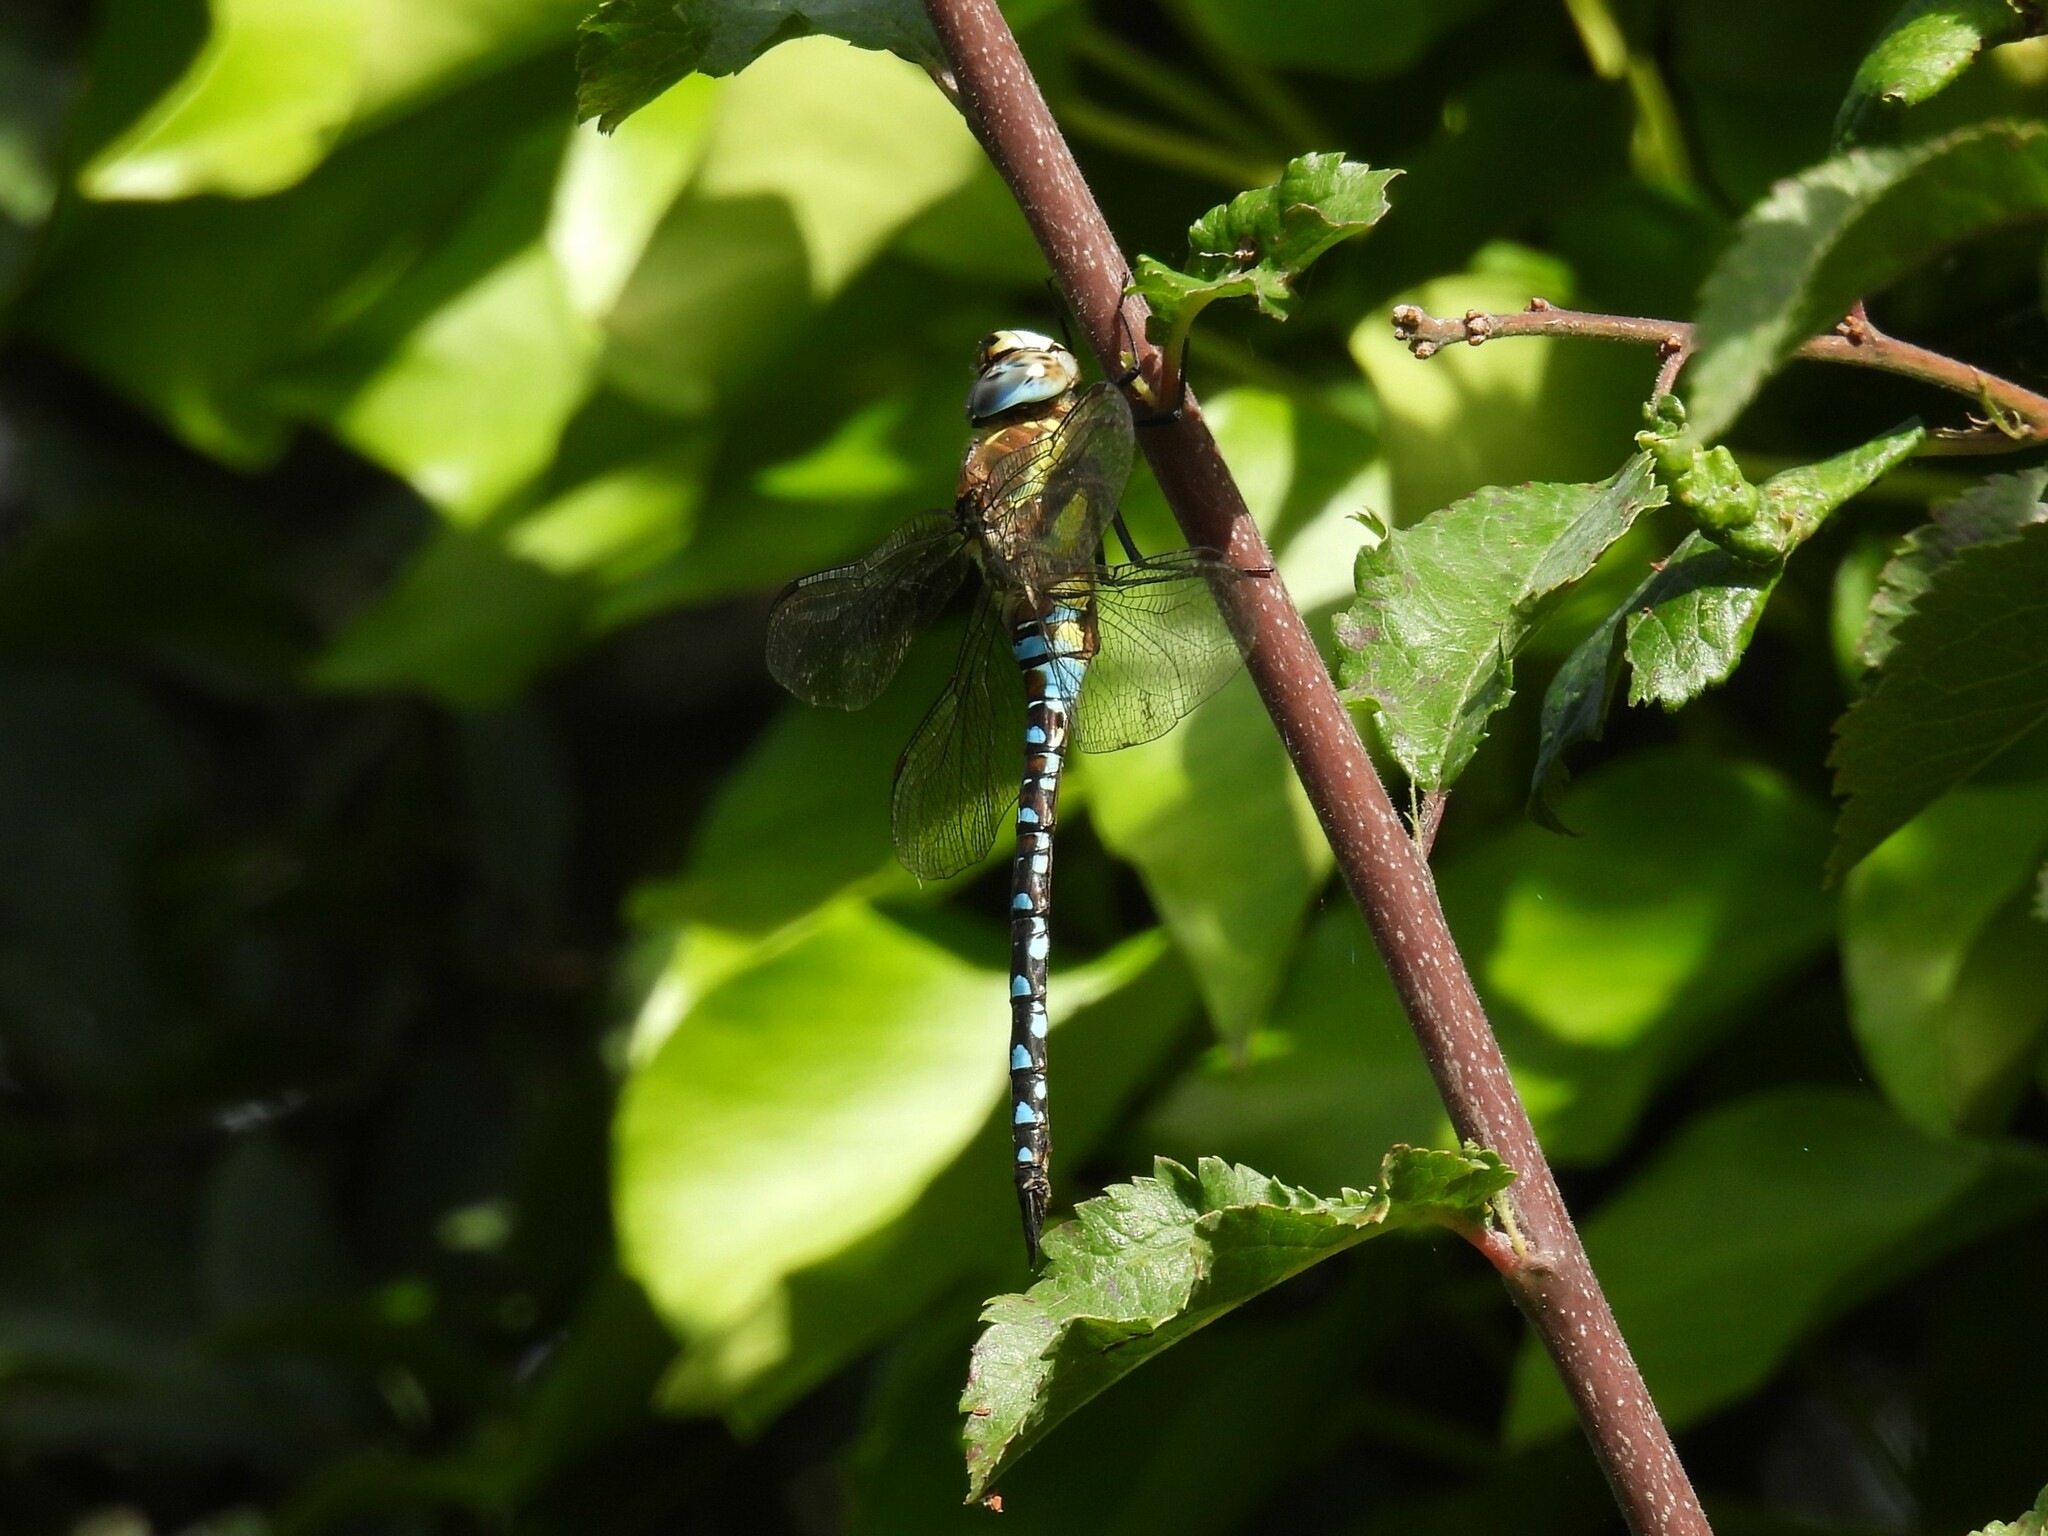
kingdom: Animalia
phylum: Arthropoda
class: Insecta
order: Odonata
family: Aeshnidae
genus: Aeshna
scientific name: Aeshna mixta
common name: Migrant hawker
